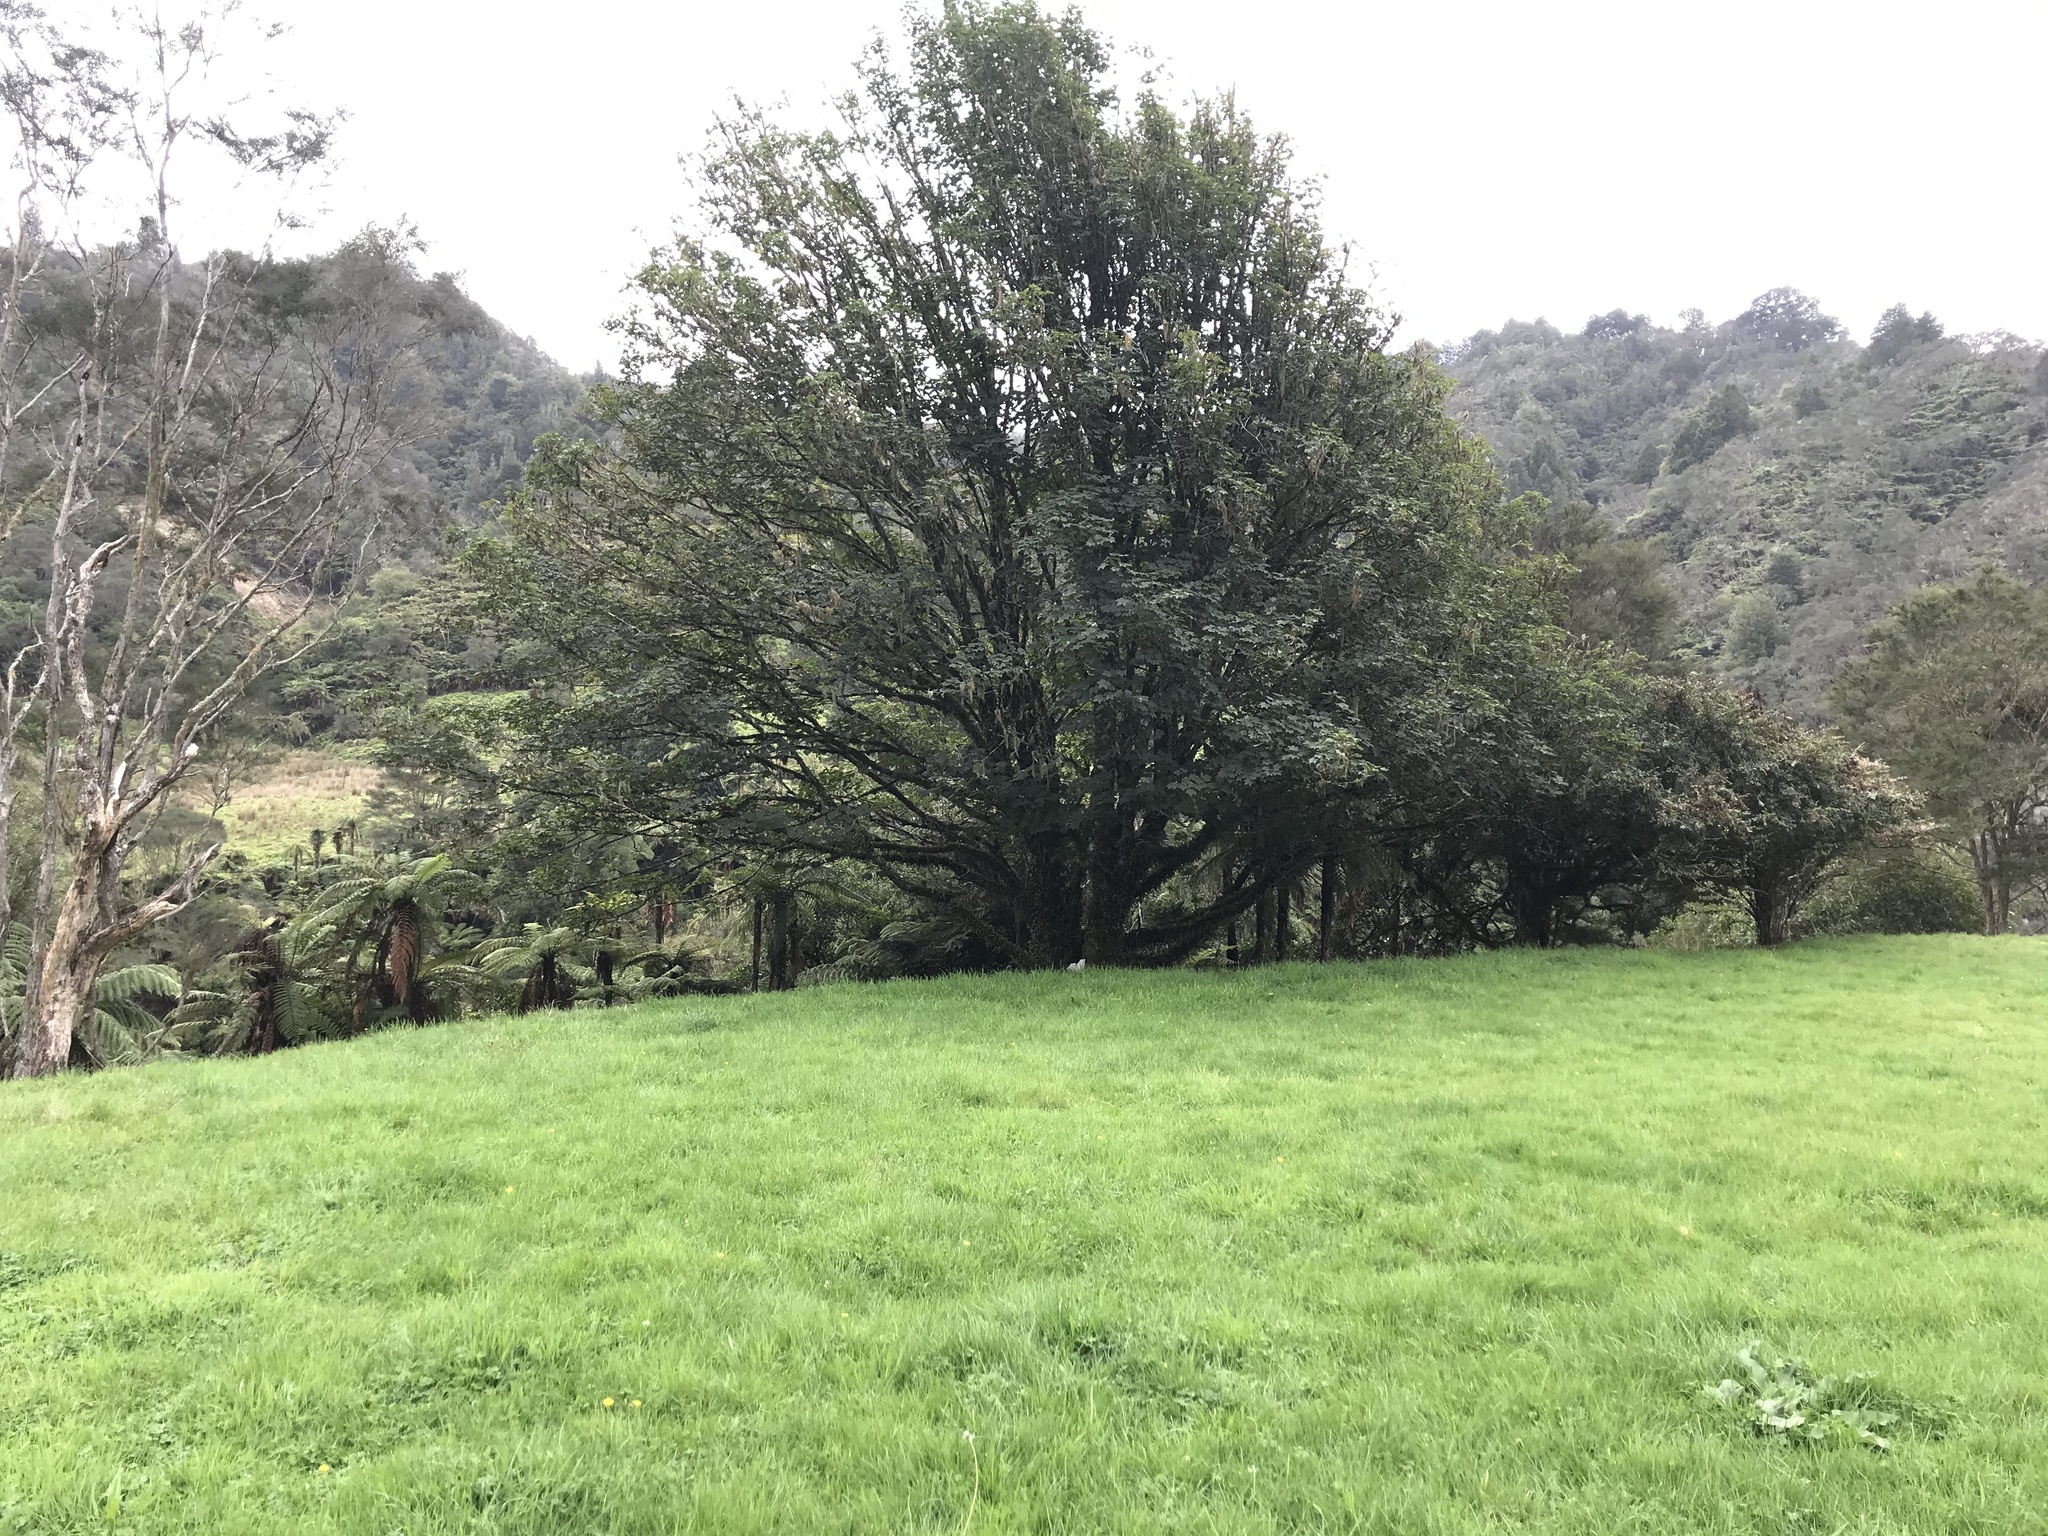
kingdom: Plantae
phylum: Tracheophyta
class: Magnoliopsida
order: Sapindales
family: Sapindaceae
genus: Acer
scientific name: Acer pseudoplatanus
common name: Sycamore
